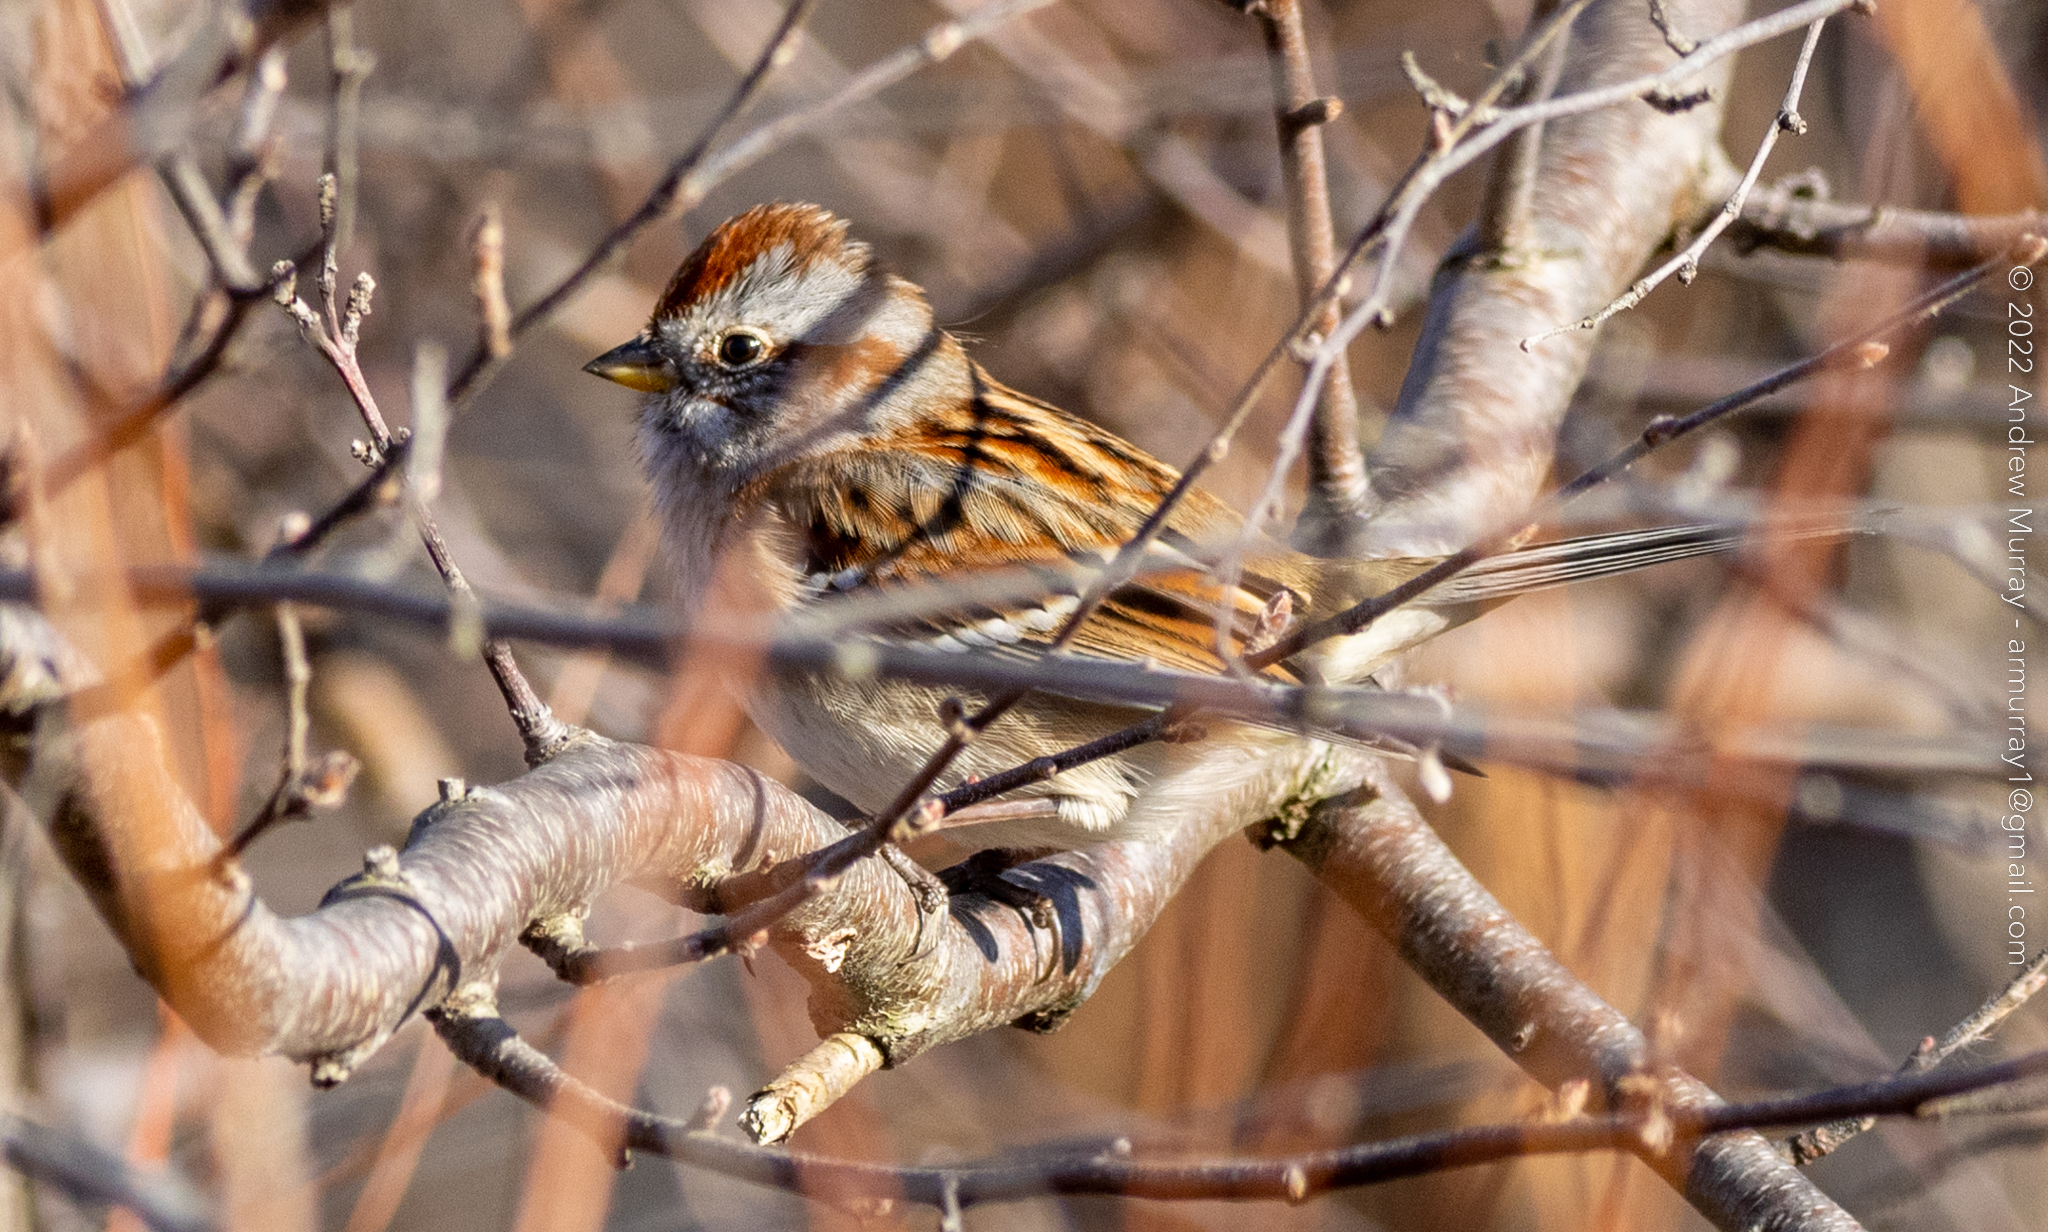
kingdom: Animalia
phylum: Chordata
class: Aves
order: Passeriformes
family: Passerellidae
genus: Spizelloides
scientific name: Spizelloides arborea
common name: American tree sparrow
